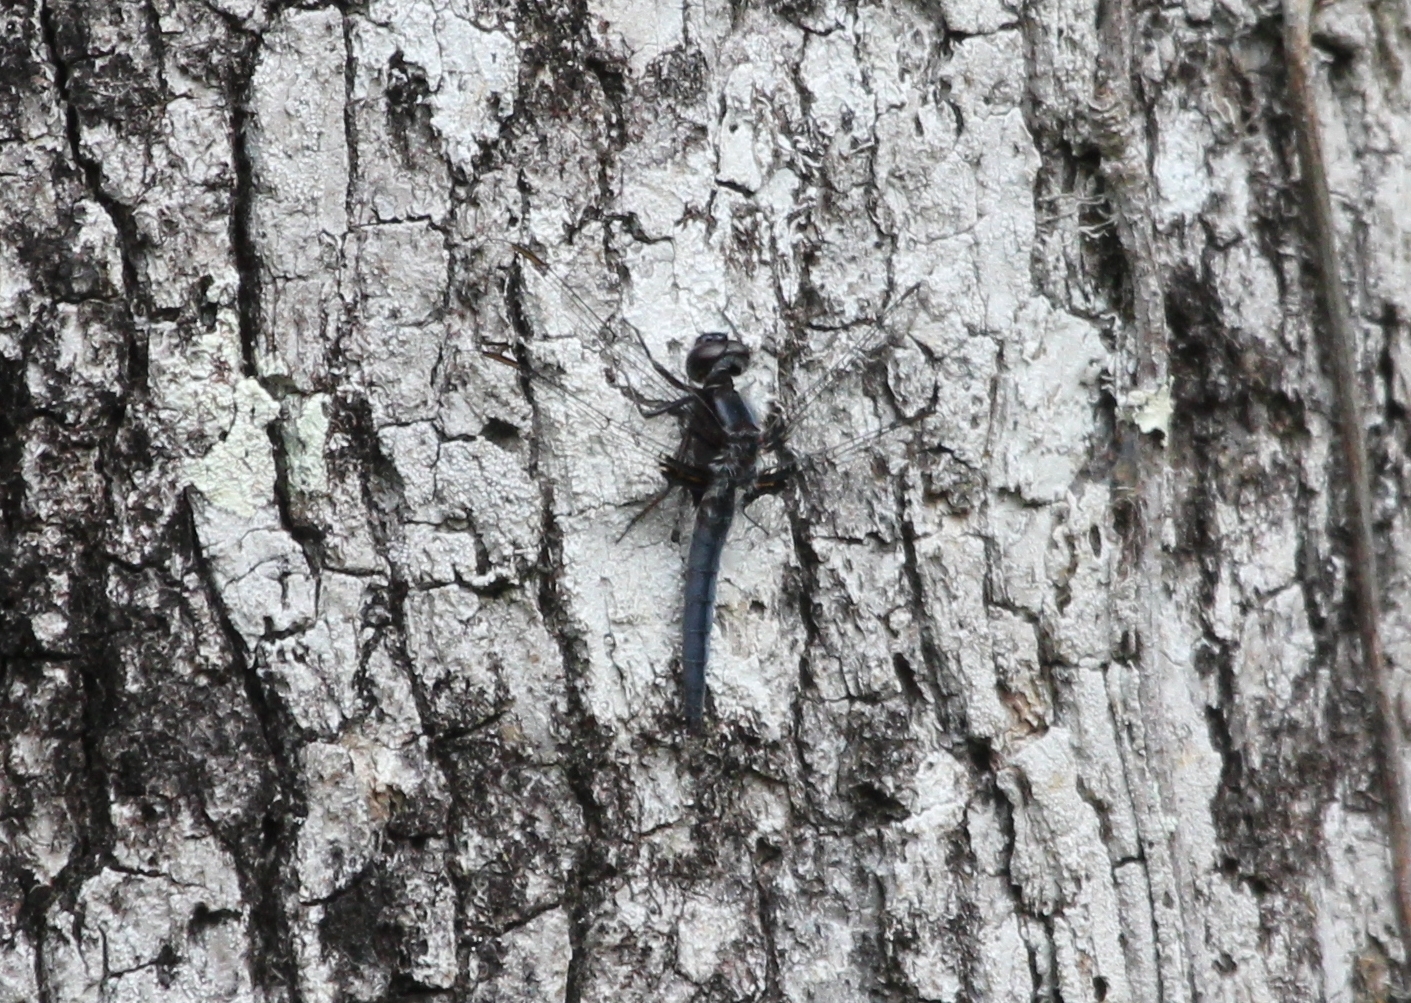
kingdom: Animalia
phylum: Arthropoda
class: Insecta
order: Odonata
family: Libellulidae
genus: Ladona
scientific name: Ladona deplanata
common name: Blue corporal
